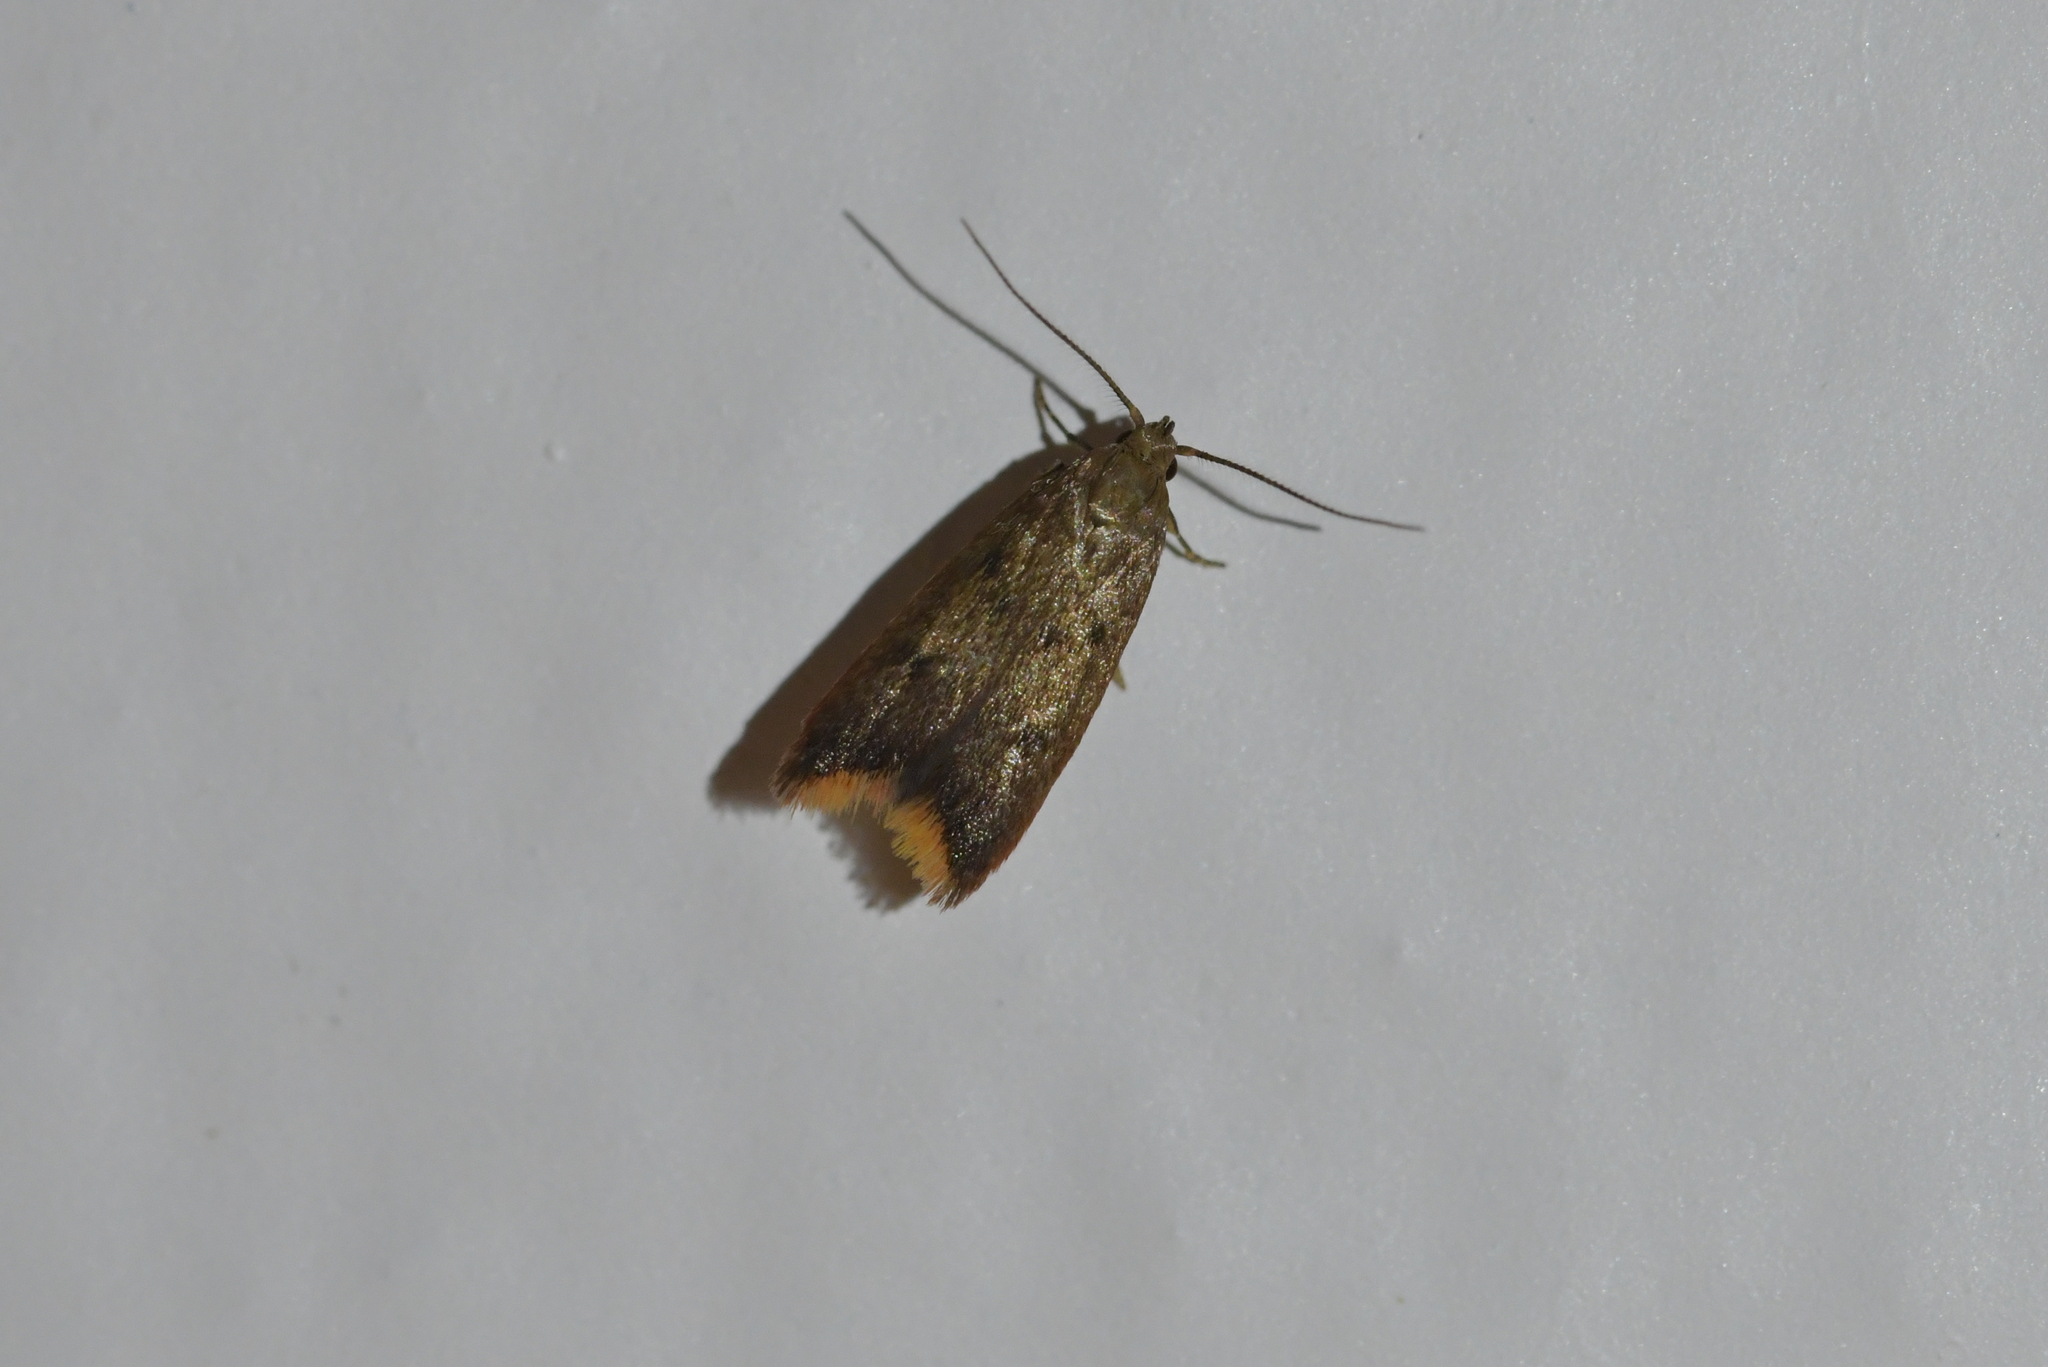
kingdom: Animalia
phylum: Arthropoda
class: Insecta
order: Lepidoptera
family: Oecophoridae
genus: Tachystola
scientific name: Tachystola acroxantha
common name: Ruddy streak
